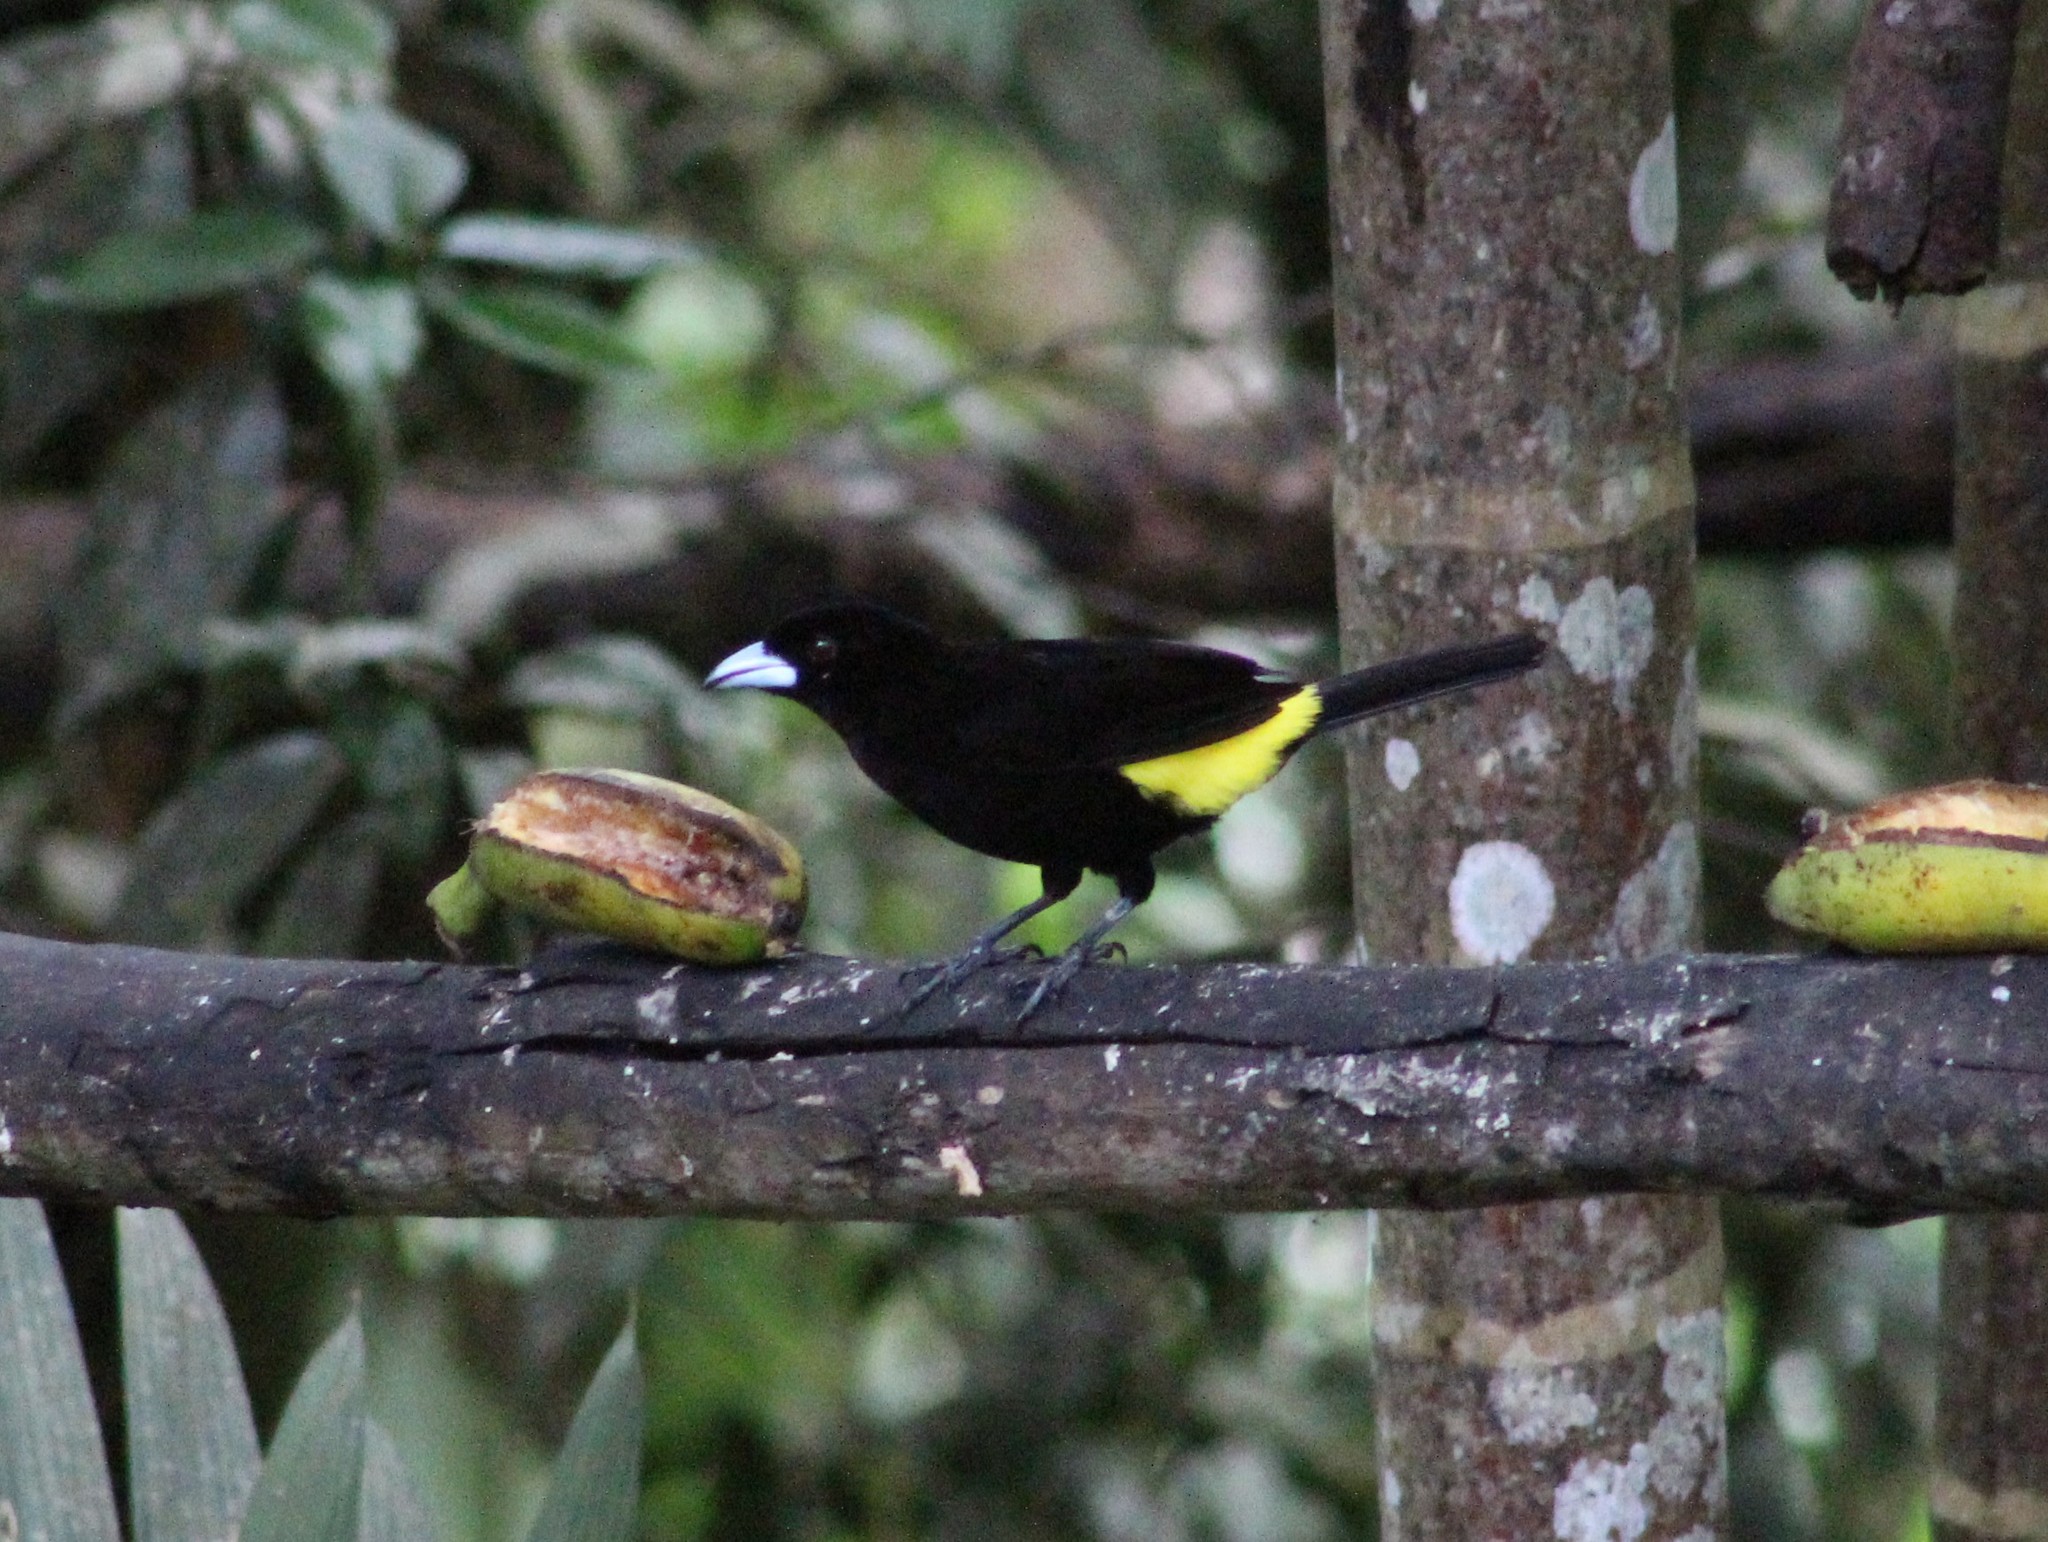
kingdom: Animalia
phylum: Chordata
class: Aves
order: Passeriformes
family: Thraupidae
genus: Ramphocelus
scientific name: Ramphocelus flammigerus
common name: Flame-rumped tanager
